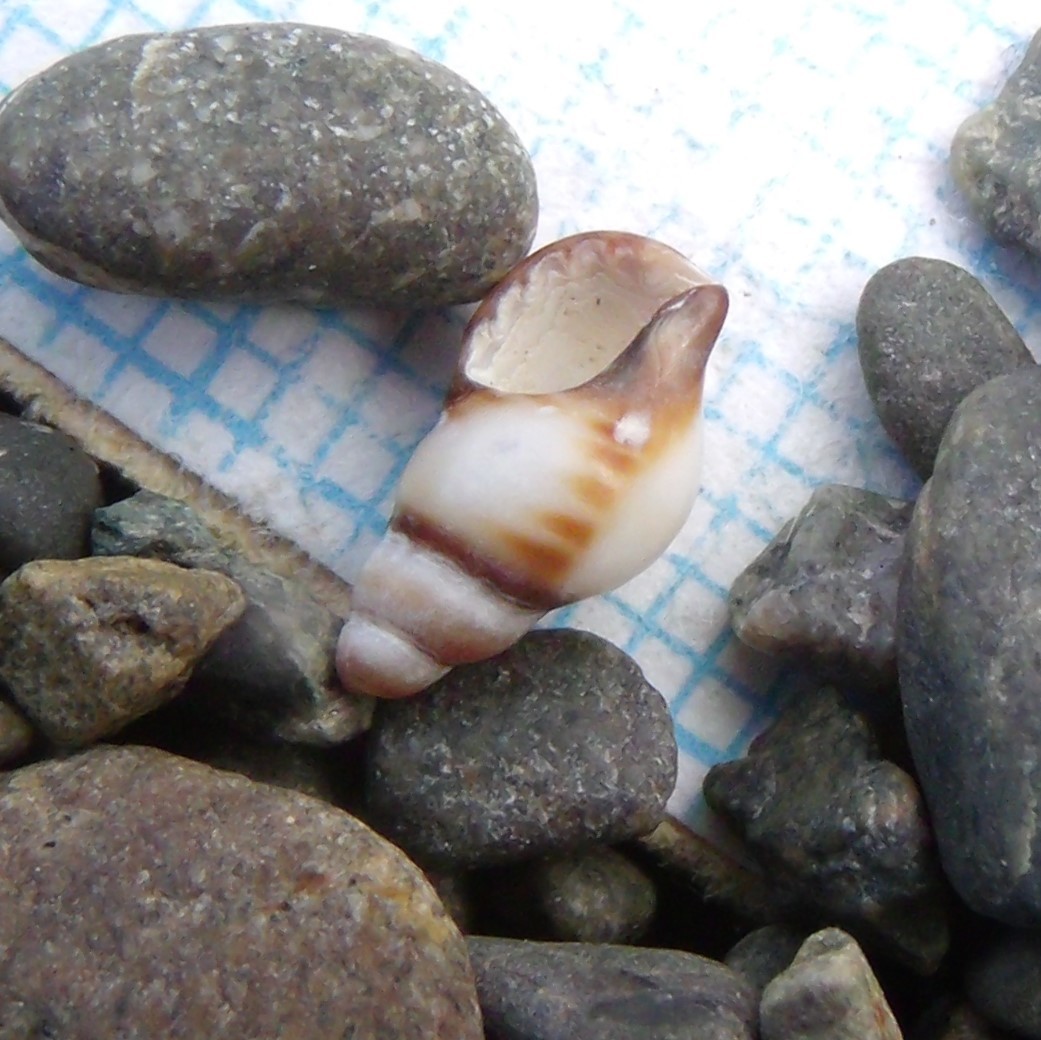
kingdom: Animalia
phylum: Mollusca
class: Gastropoda
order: Neogastropoda
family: Muricidae
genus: Xymene
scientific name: Xymene plebeius
